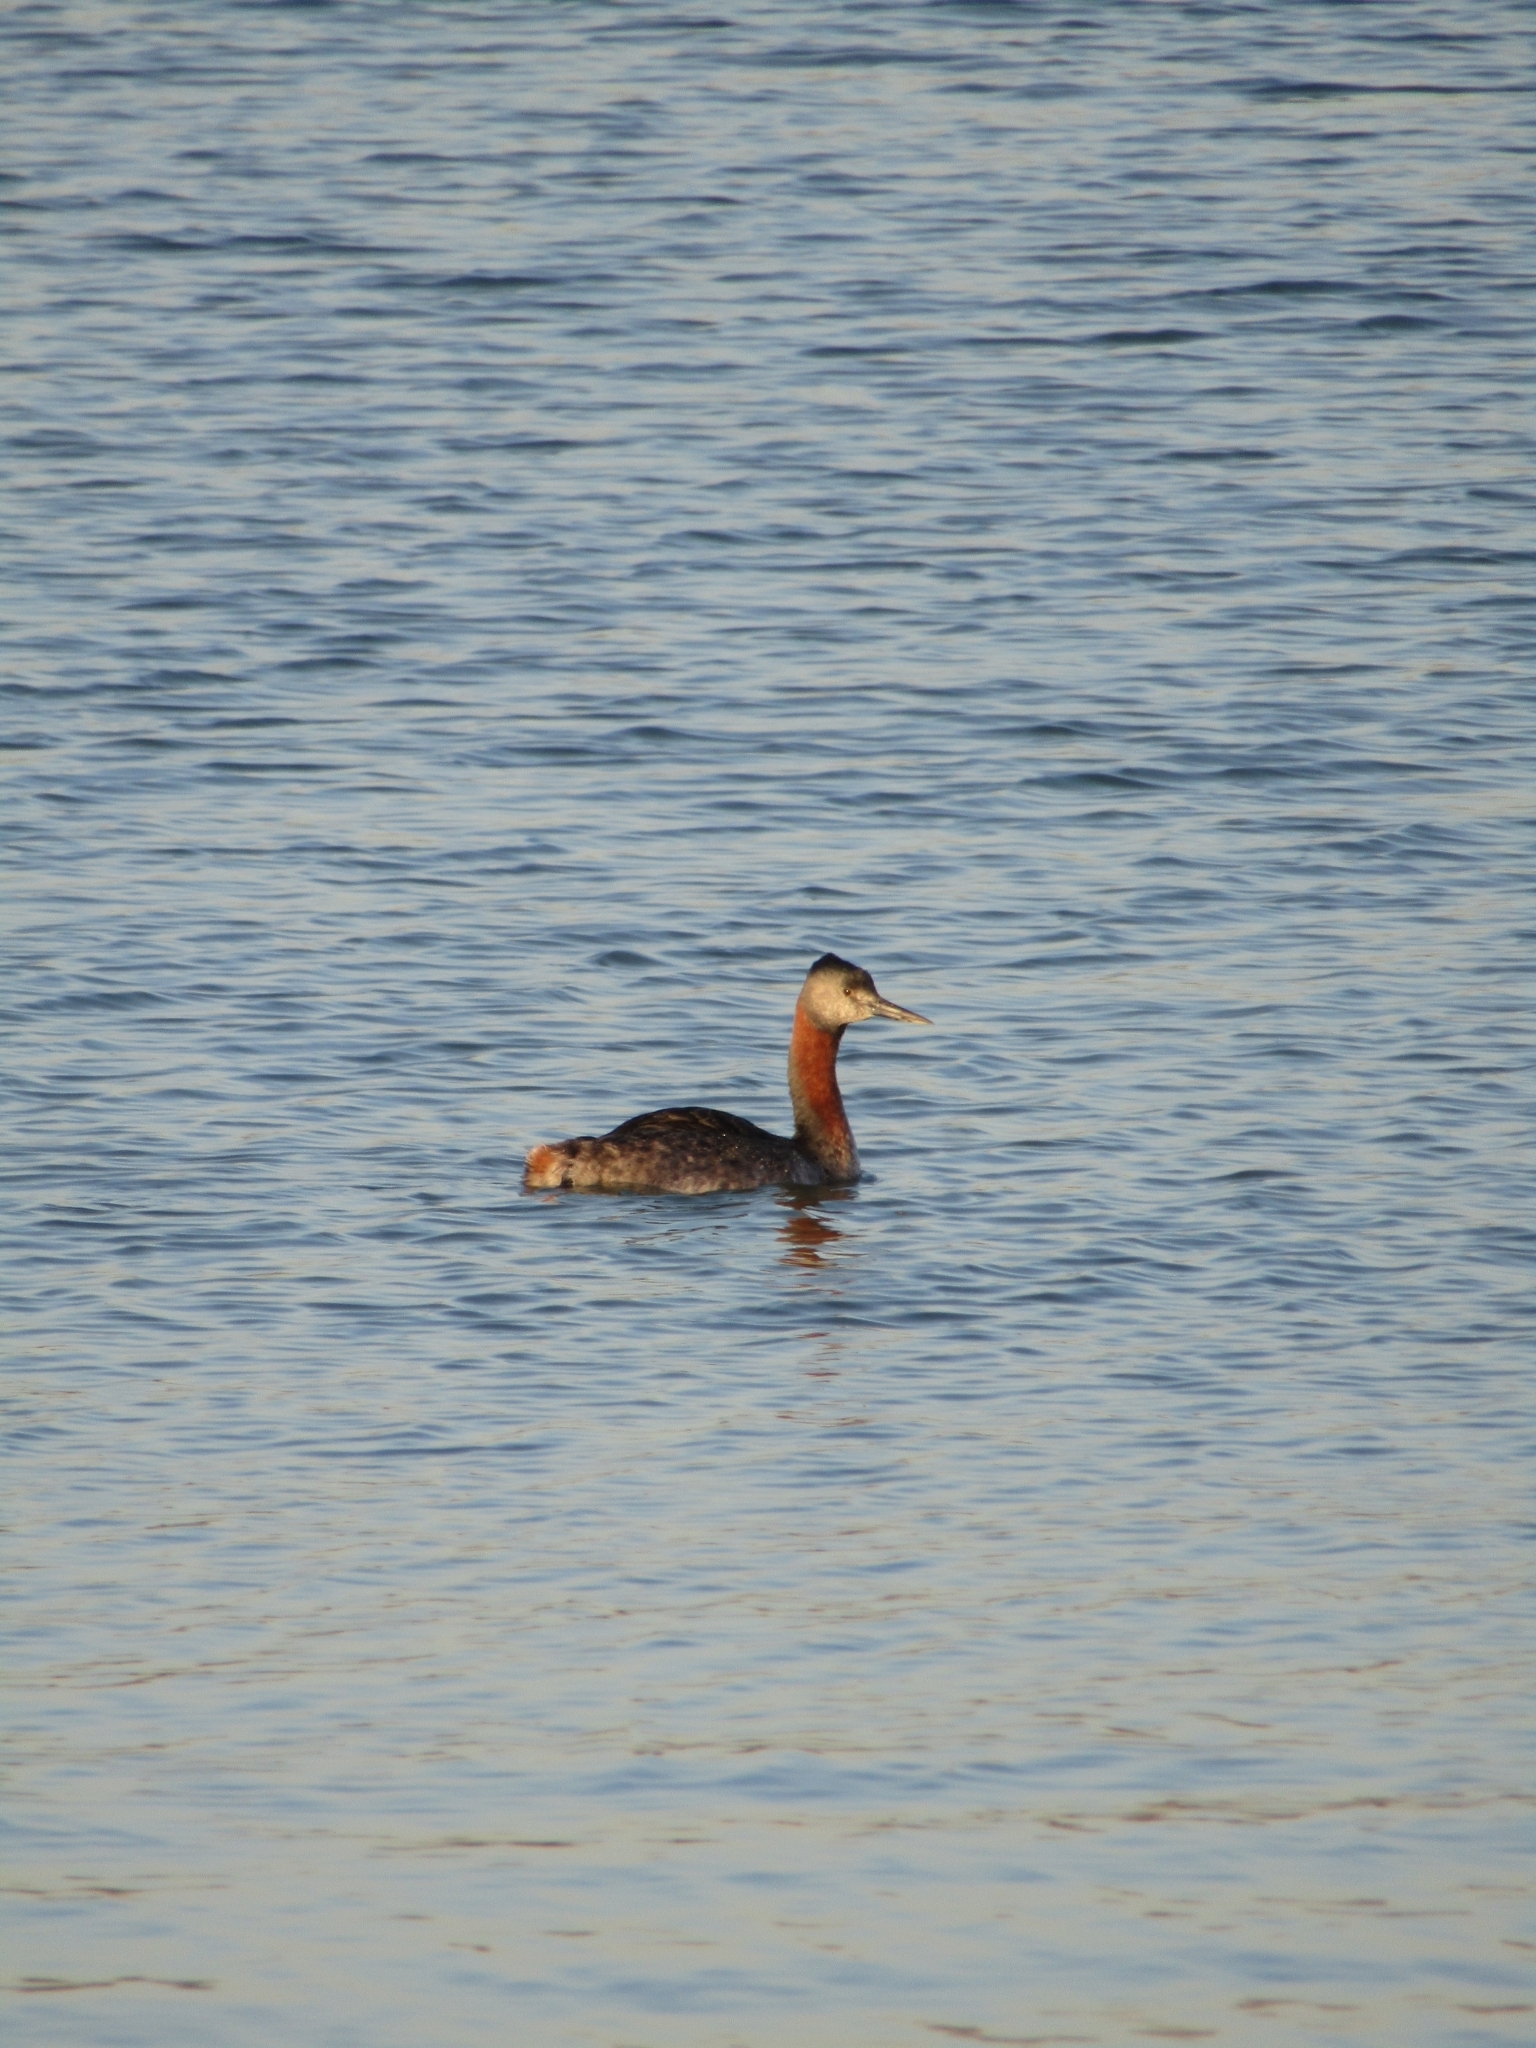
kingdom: Animalia
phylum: Chordata
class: Aves
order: Podicipediformes
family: Podicipedidae
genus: Podiceps
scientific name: Podiceps major
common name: Great grebe
